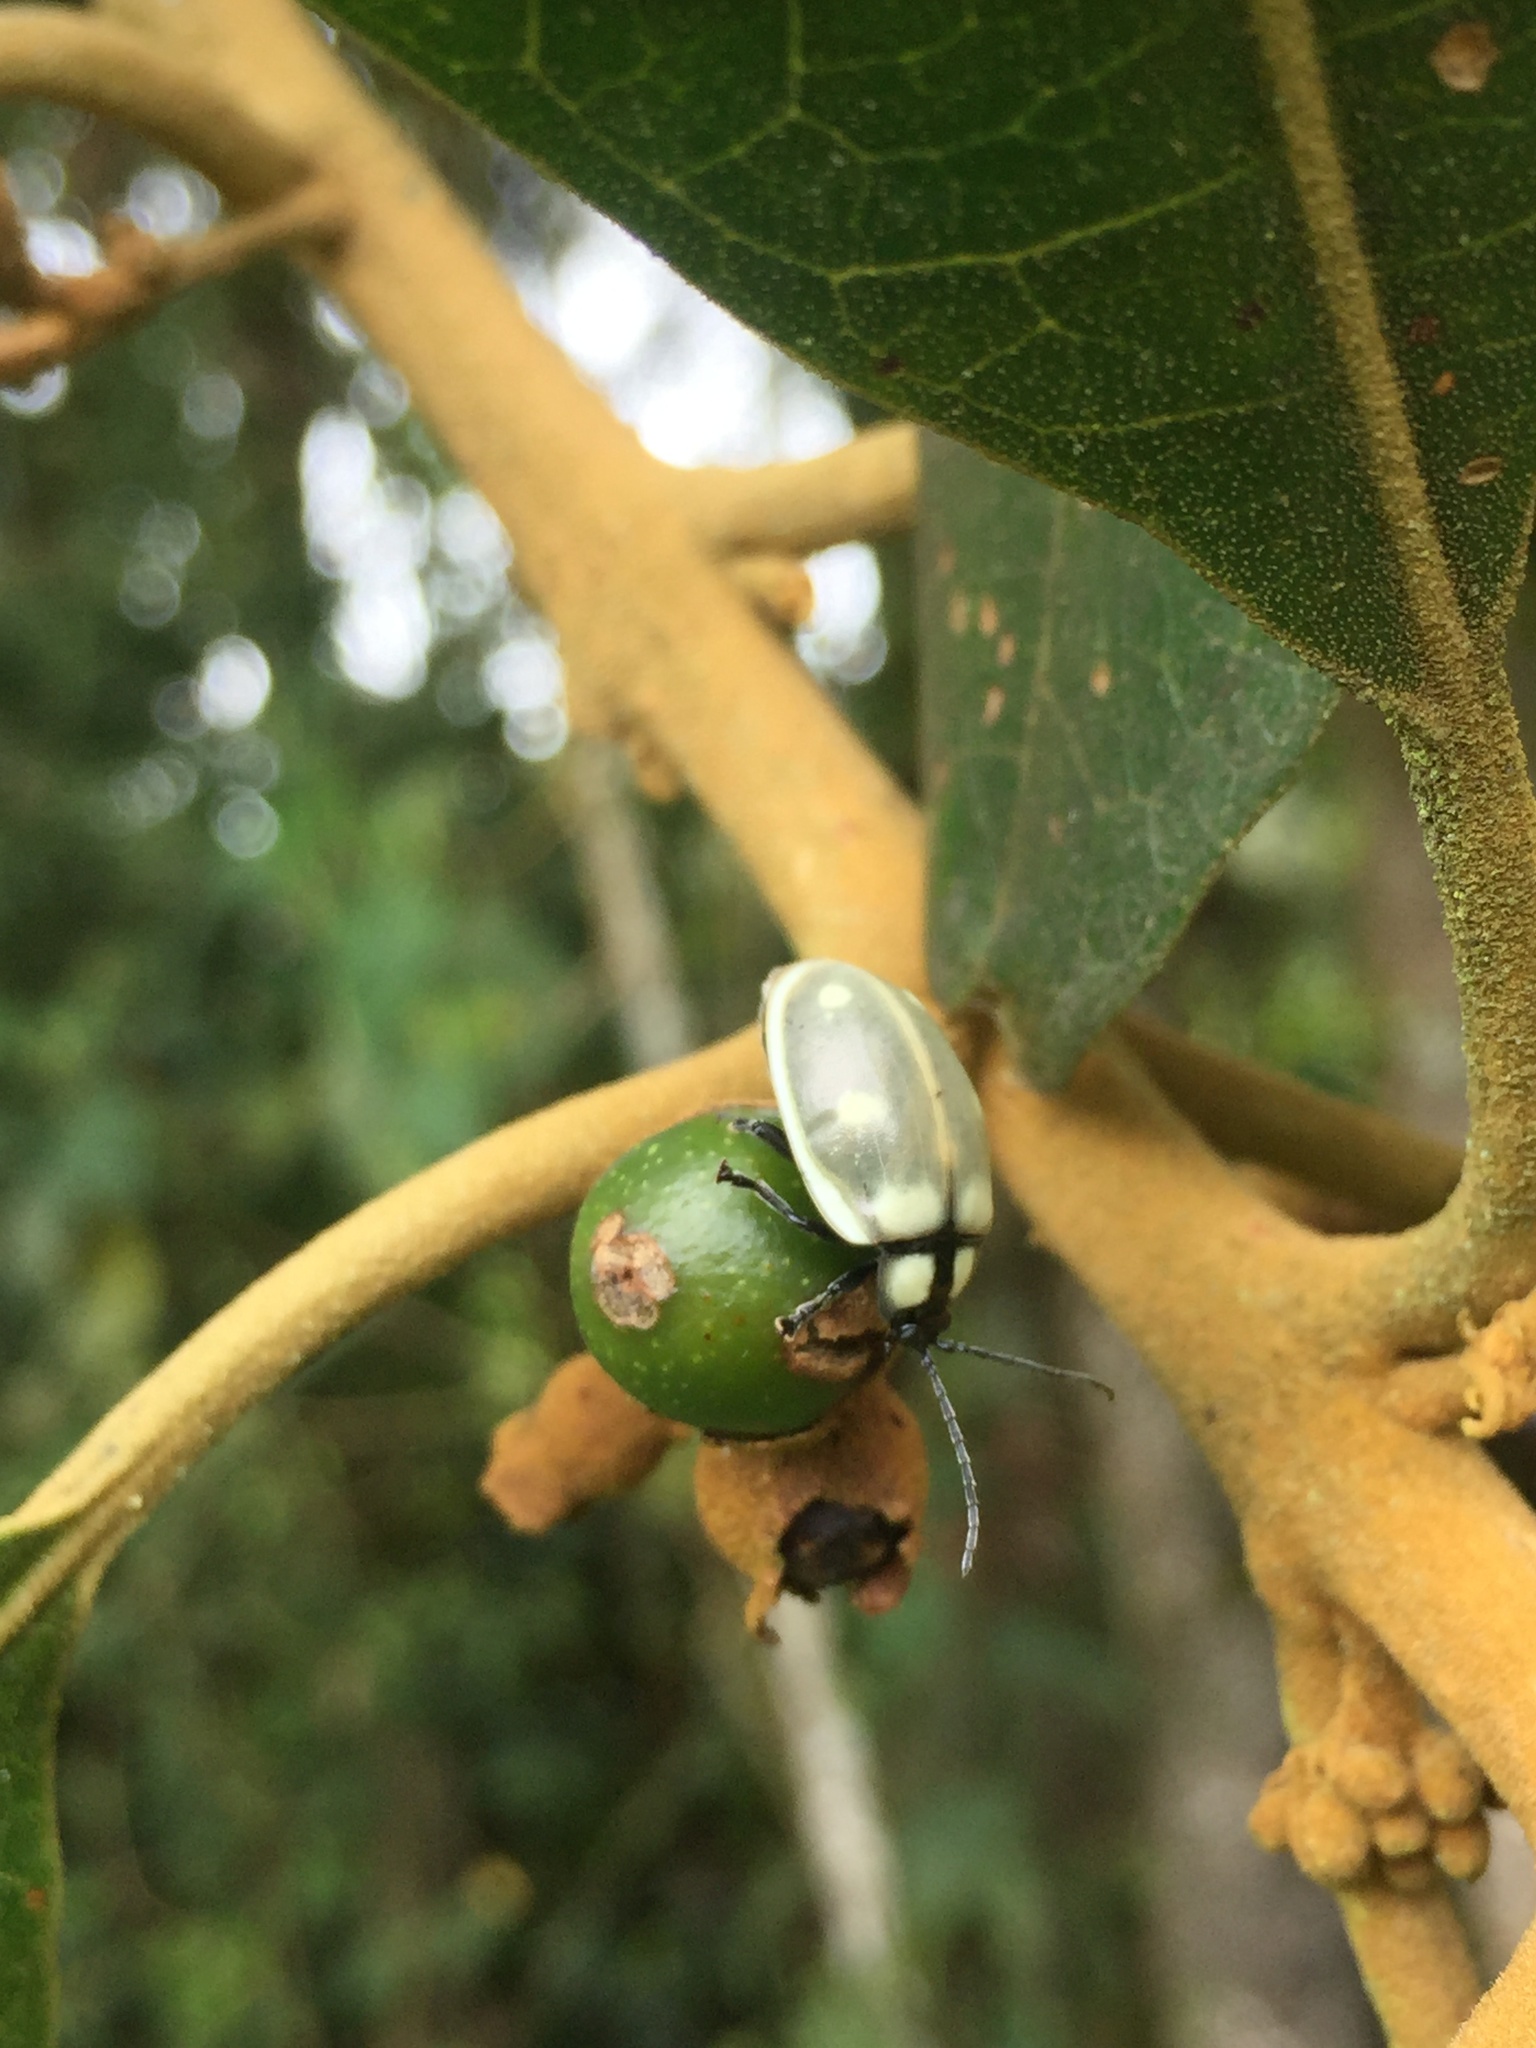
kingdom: Animalia
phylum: Arthropoda
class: Insecta
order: Coleoptera
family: Chrysomelidae
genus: Aspicela
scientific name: Aspicela
